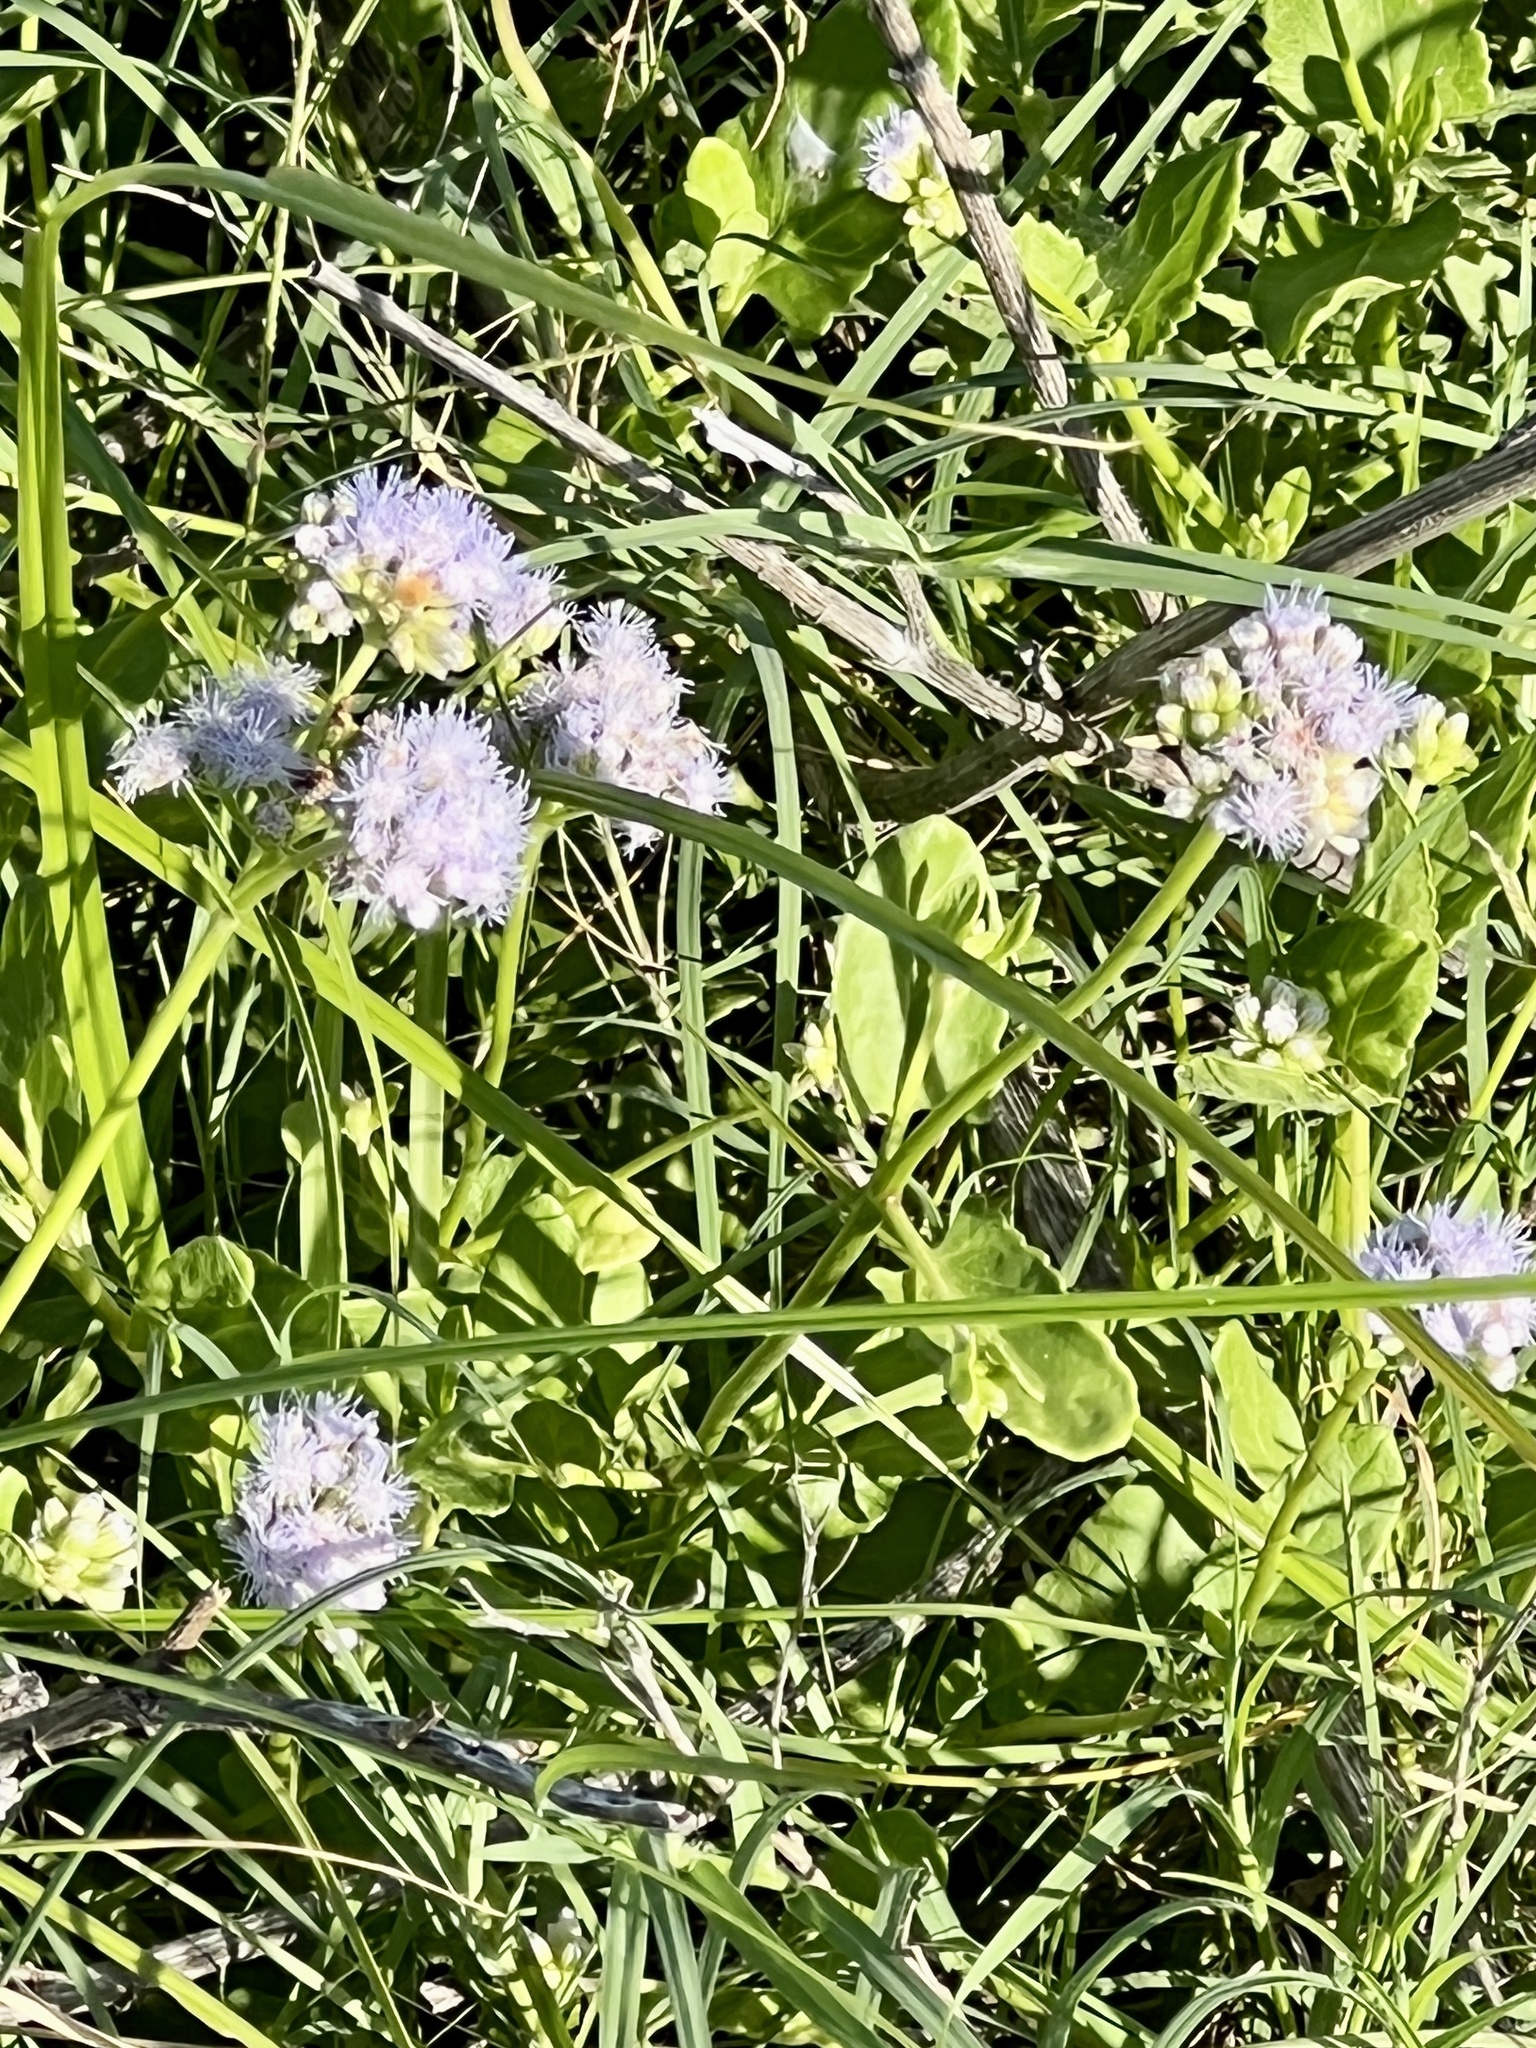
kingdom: Plantae
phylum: Tracheophyta
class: Magnoliopsida
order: Asterales
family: Asteraceae
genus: Conoclinium
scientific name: Conoclinium betonicifolium
